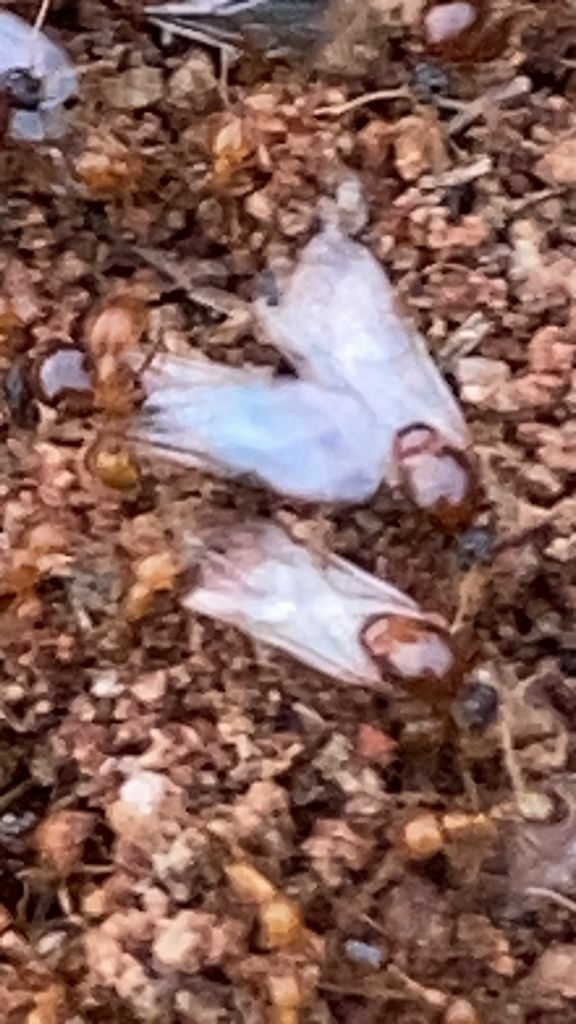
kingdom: Animalia
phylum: Arthropoda
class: Insecta
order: Hymenoptera
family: Formicidae
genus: Solenopsis
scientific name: Solenopsis geminata
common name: Tropical fire ant
